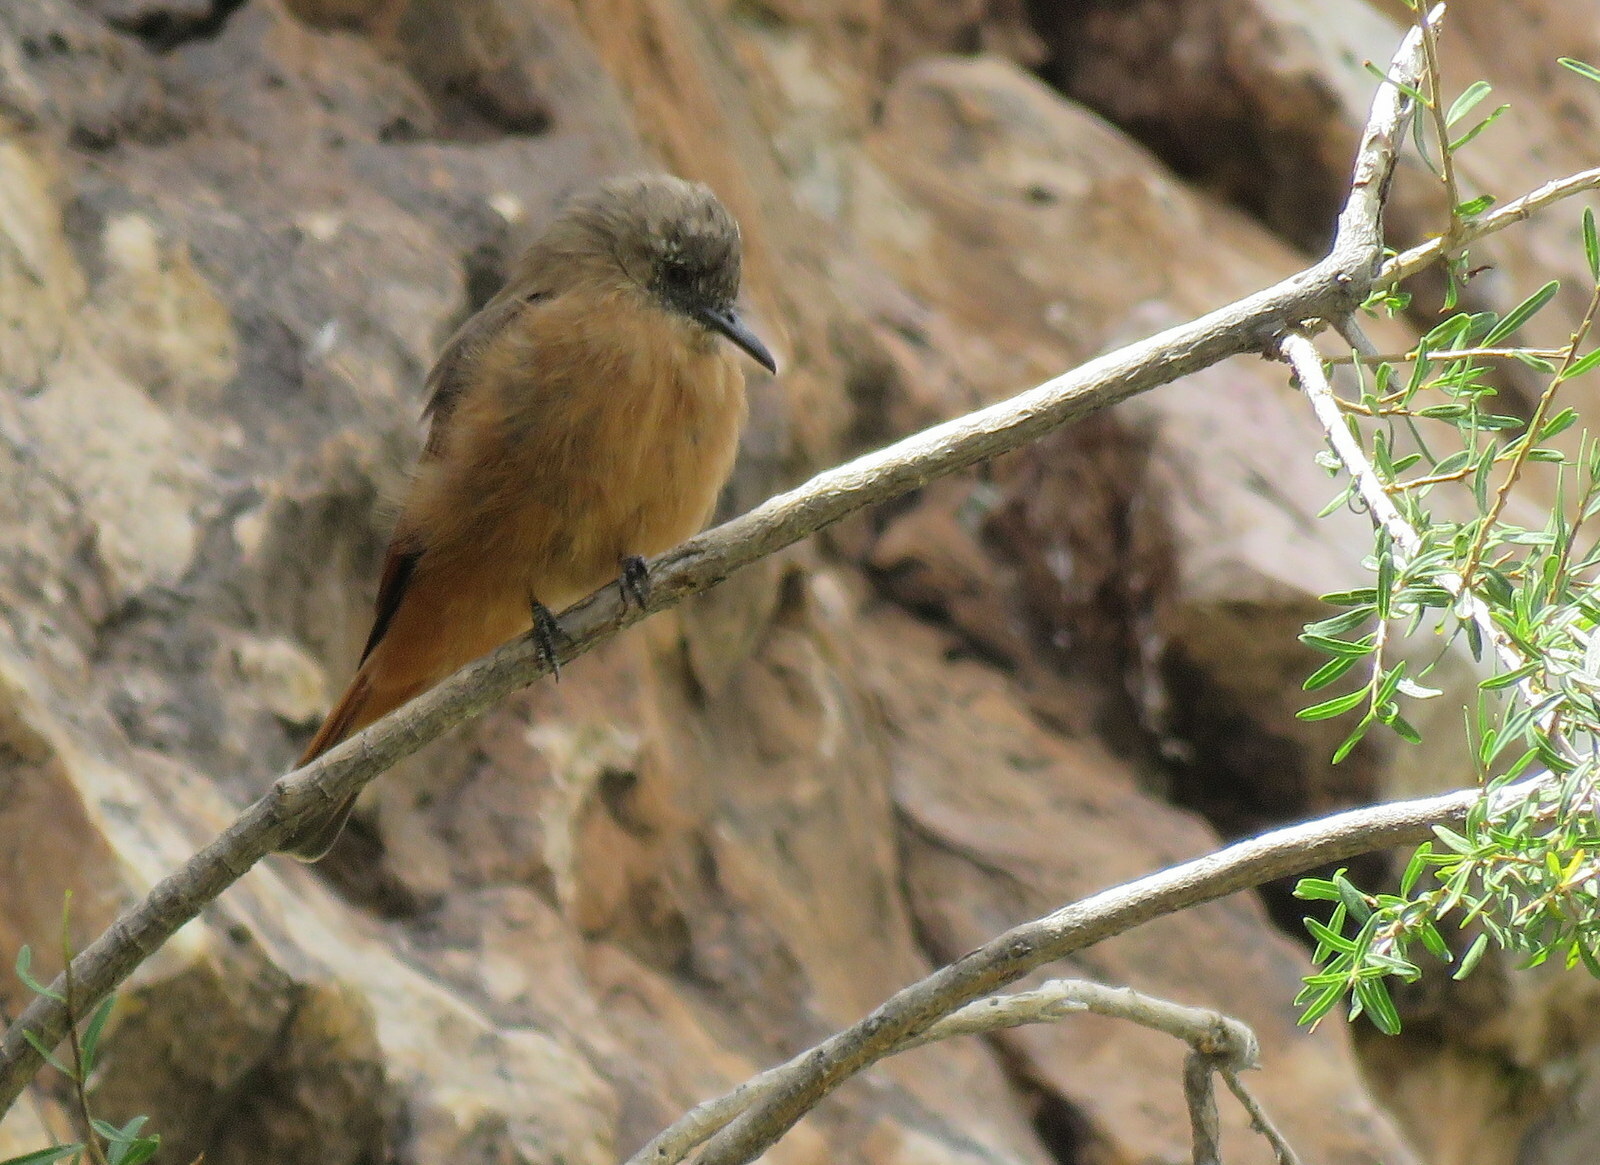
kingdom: Animalia
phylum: Chordata
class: Aves
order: Passeriformes
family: Tyrannidae
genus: Hirundinea
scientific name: Hirundinea ferruginea
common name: Cliff flycatcher
